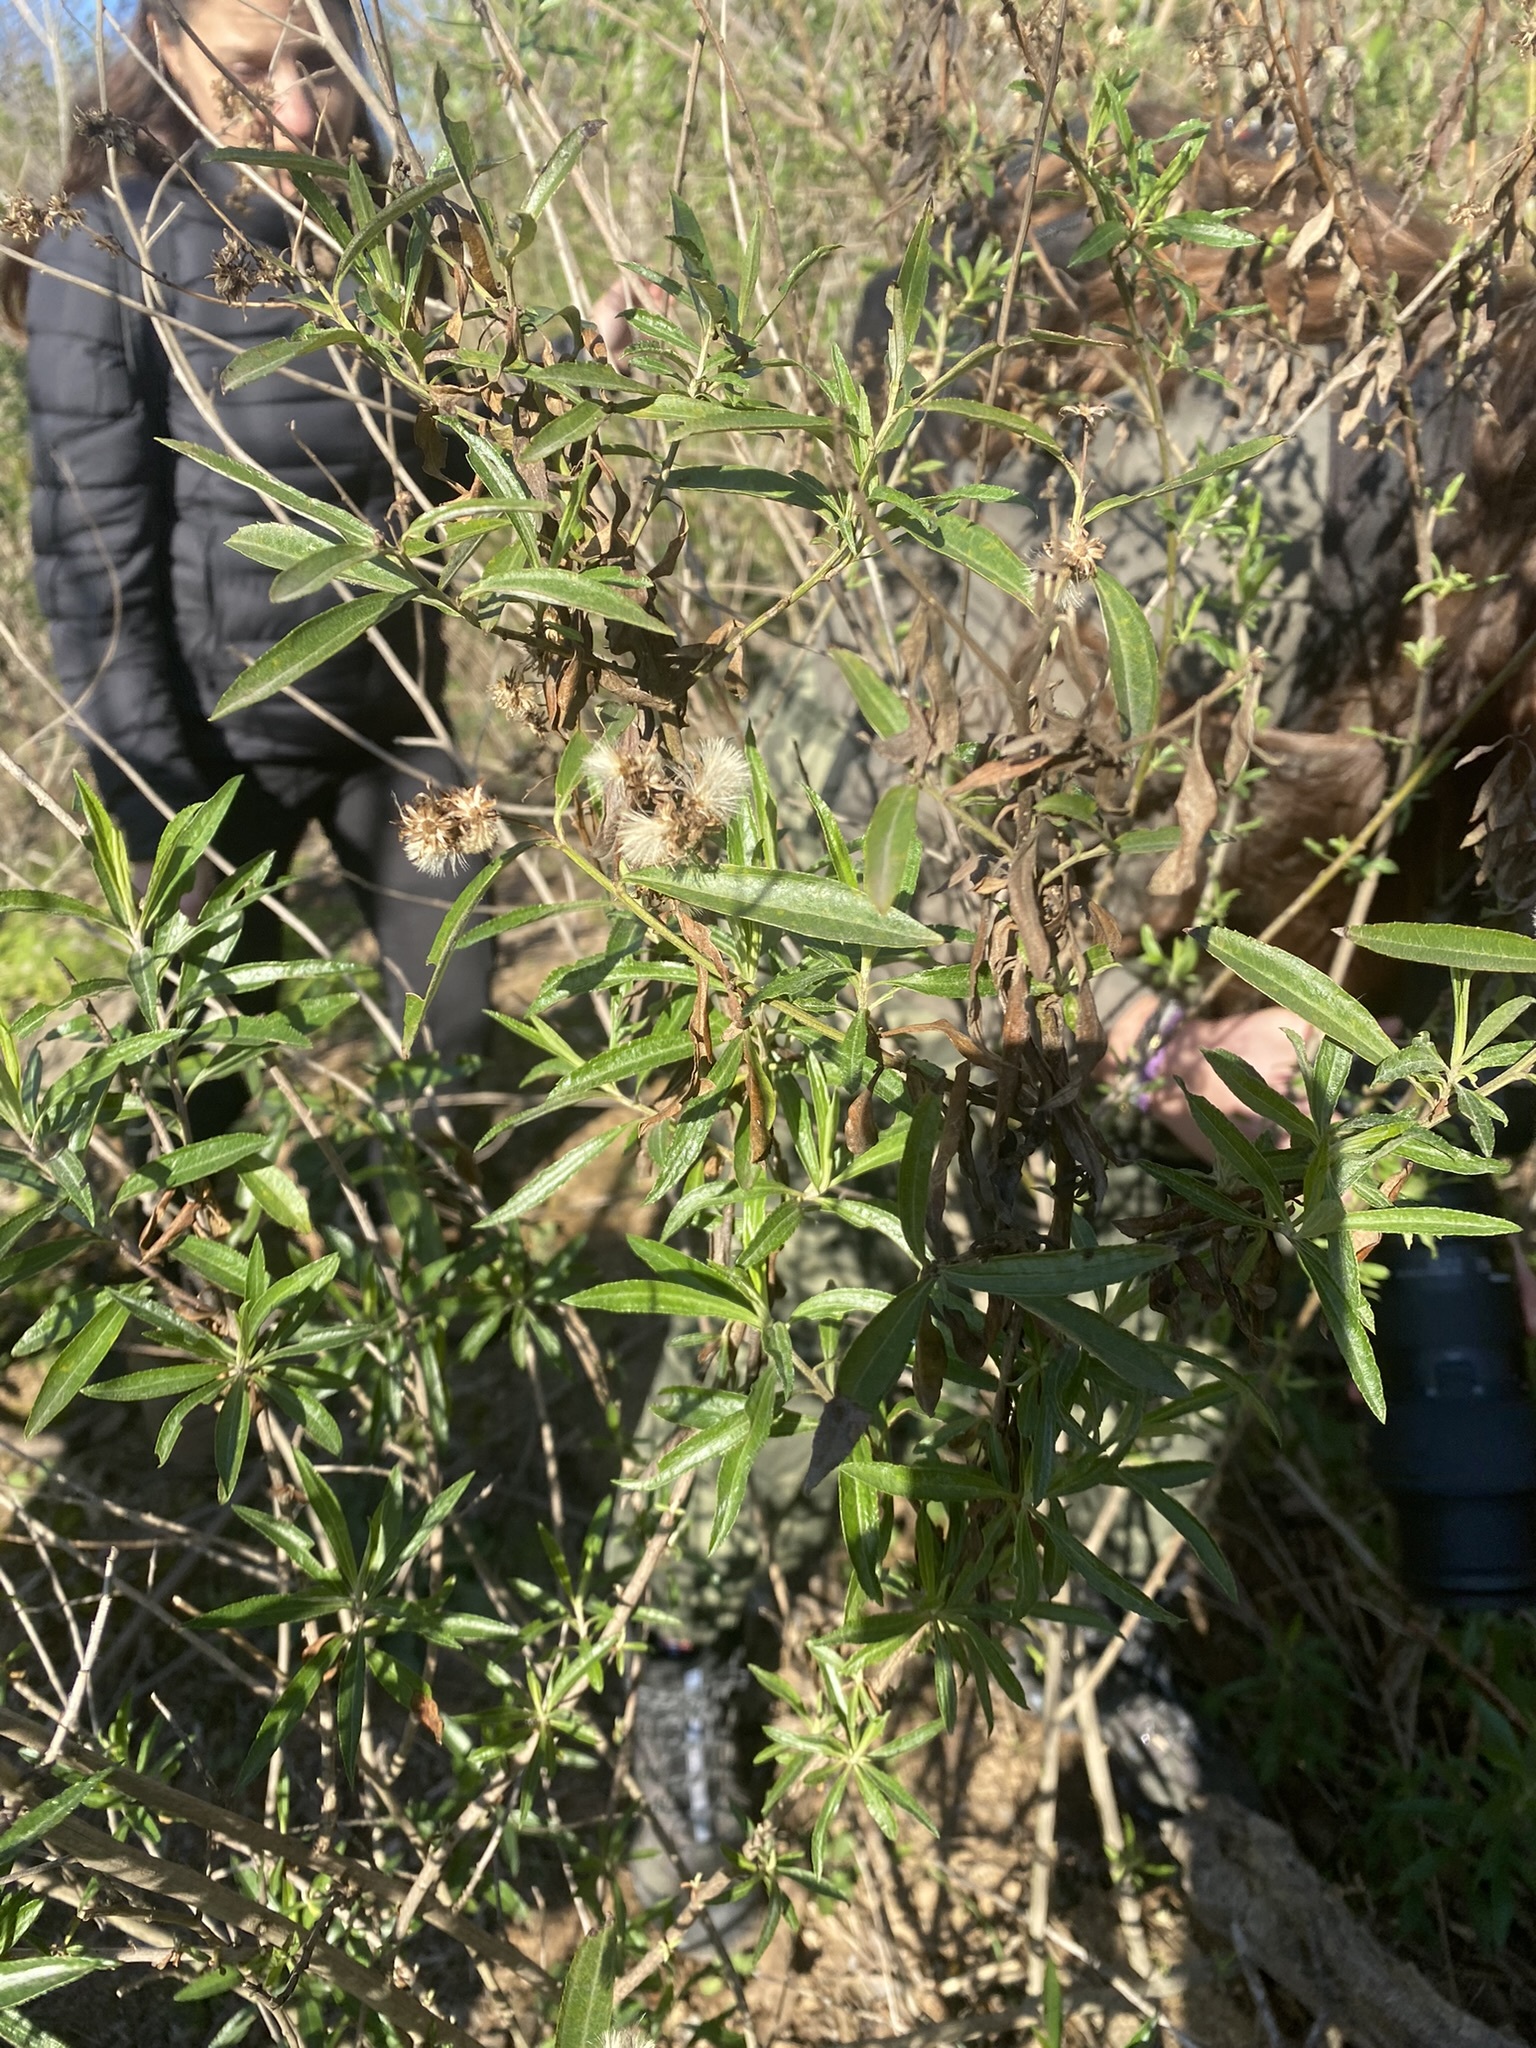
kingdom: Plantae
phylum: Tracheophyta
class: Magnoliopsida
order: Asterales
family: Asteraceae
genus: Baccharis
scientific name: Baccharis punctulata
